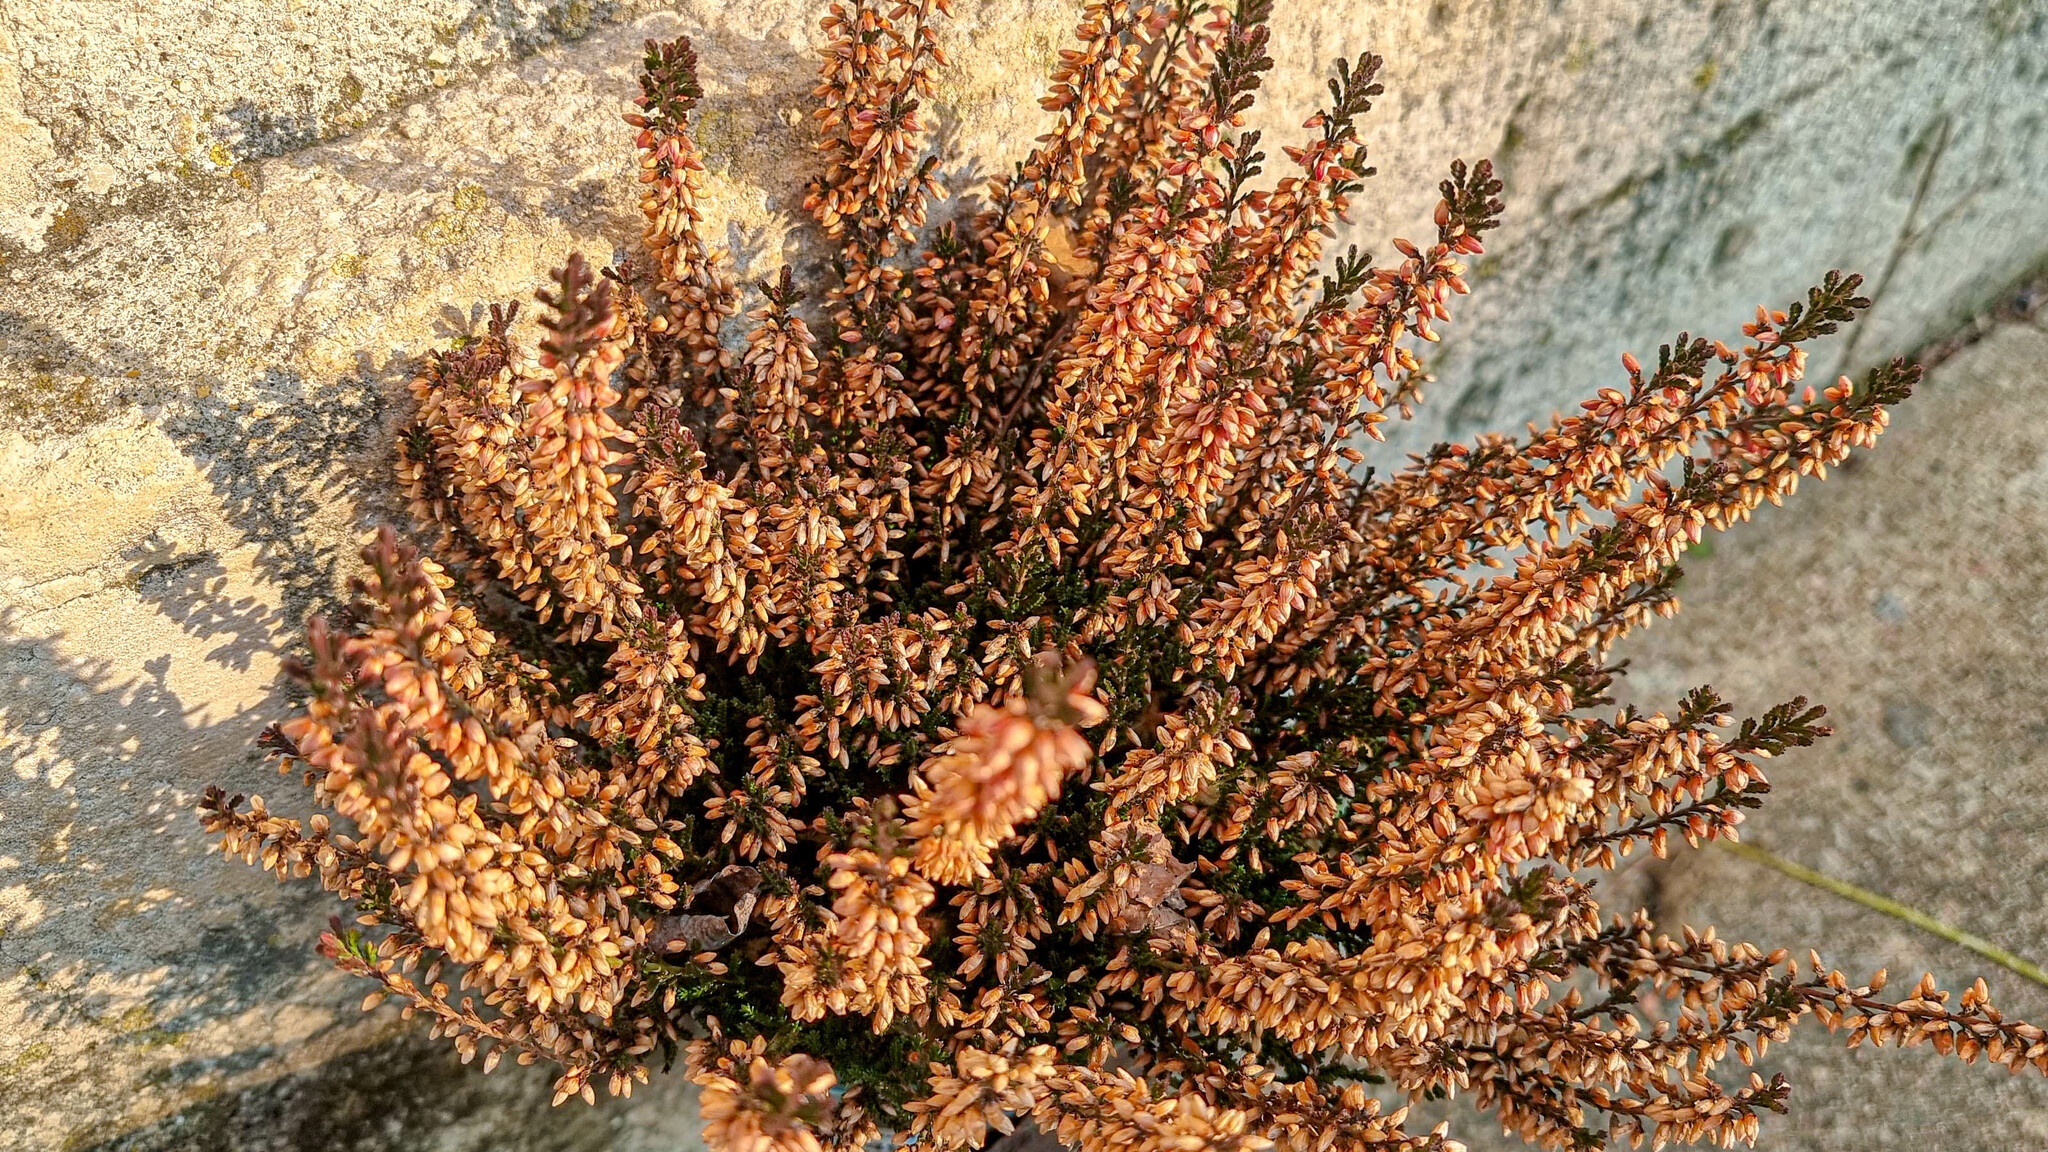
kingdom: Plantae
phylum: Tracheophyta
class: Magnoliopsida
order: Saxifragales
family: Crassulaceae
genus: Umbilicus
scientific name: Umbilicus rupestris
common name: Navelwort
